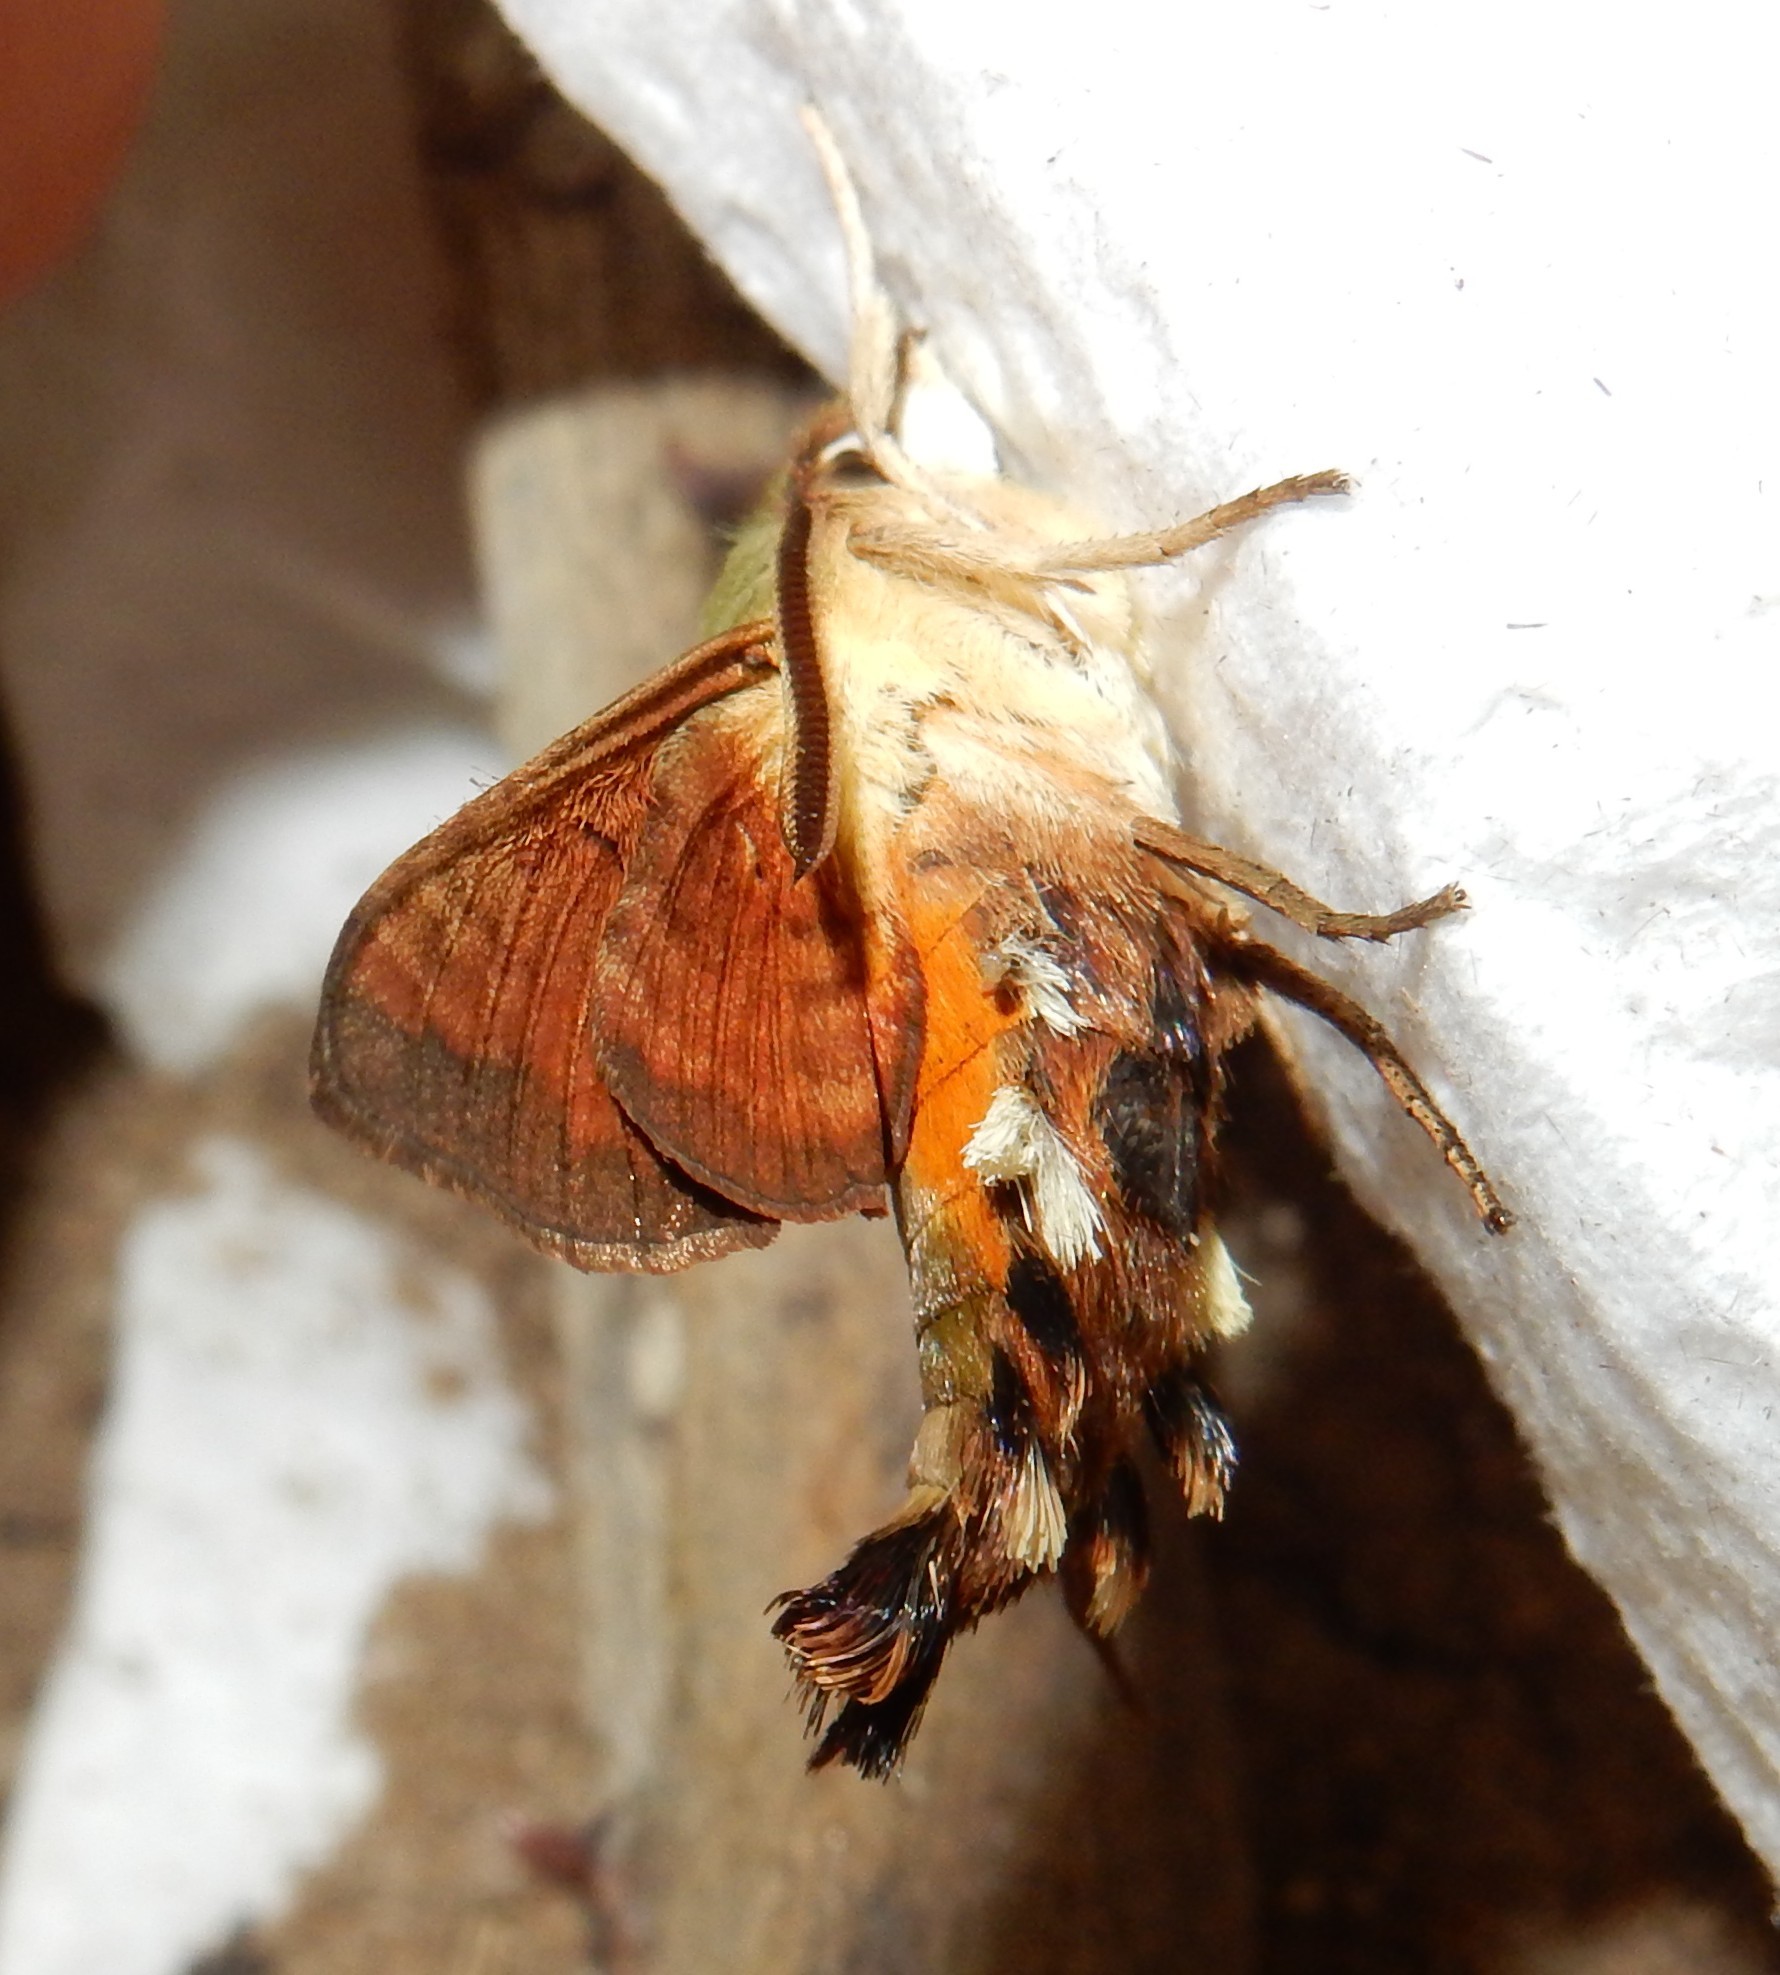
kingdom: Animalia
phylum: Arthropoda
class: Insecta
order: Lepidoptera
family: Sphingidae
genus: Macroglossum
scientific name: Macroglossum trochilus
